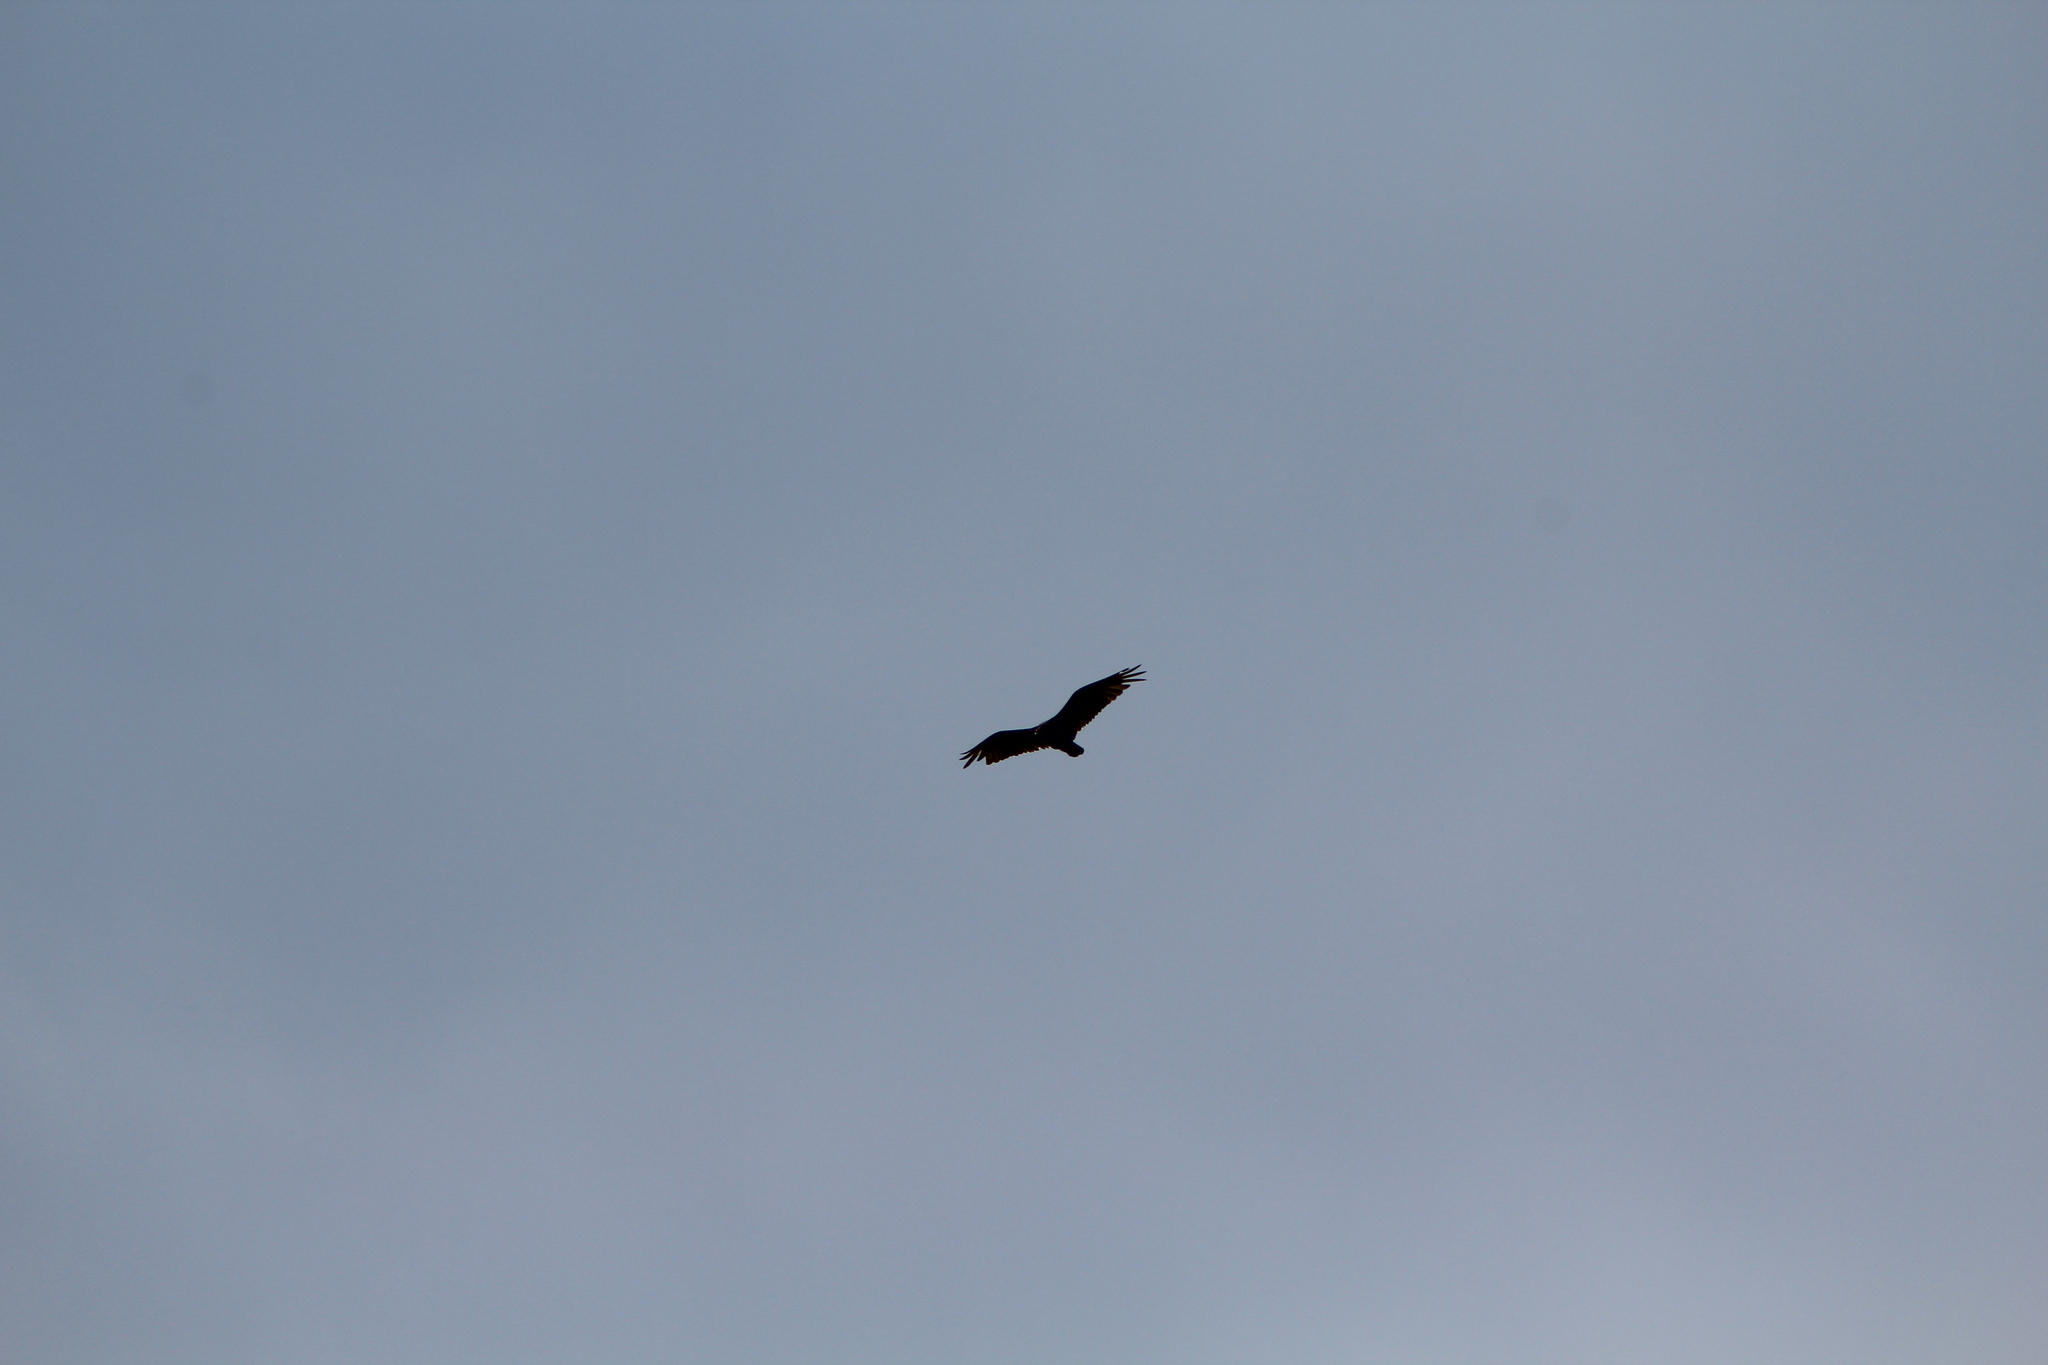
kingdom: Animalia
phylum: Chordata
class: Aves
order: Accipitriformes
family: Cathartidae
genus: Cathartes
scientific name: Cathartes aura
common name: Turkey vulture
